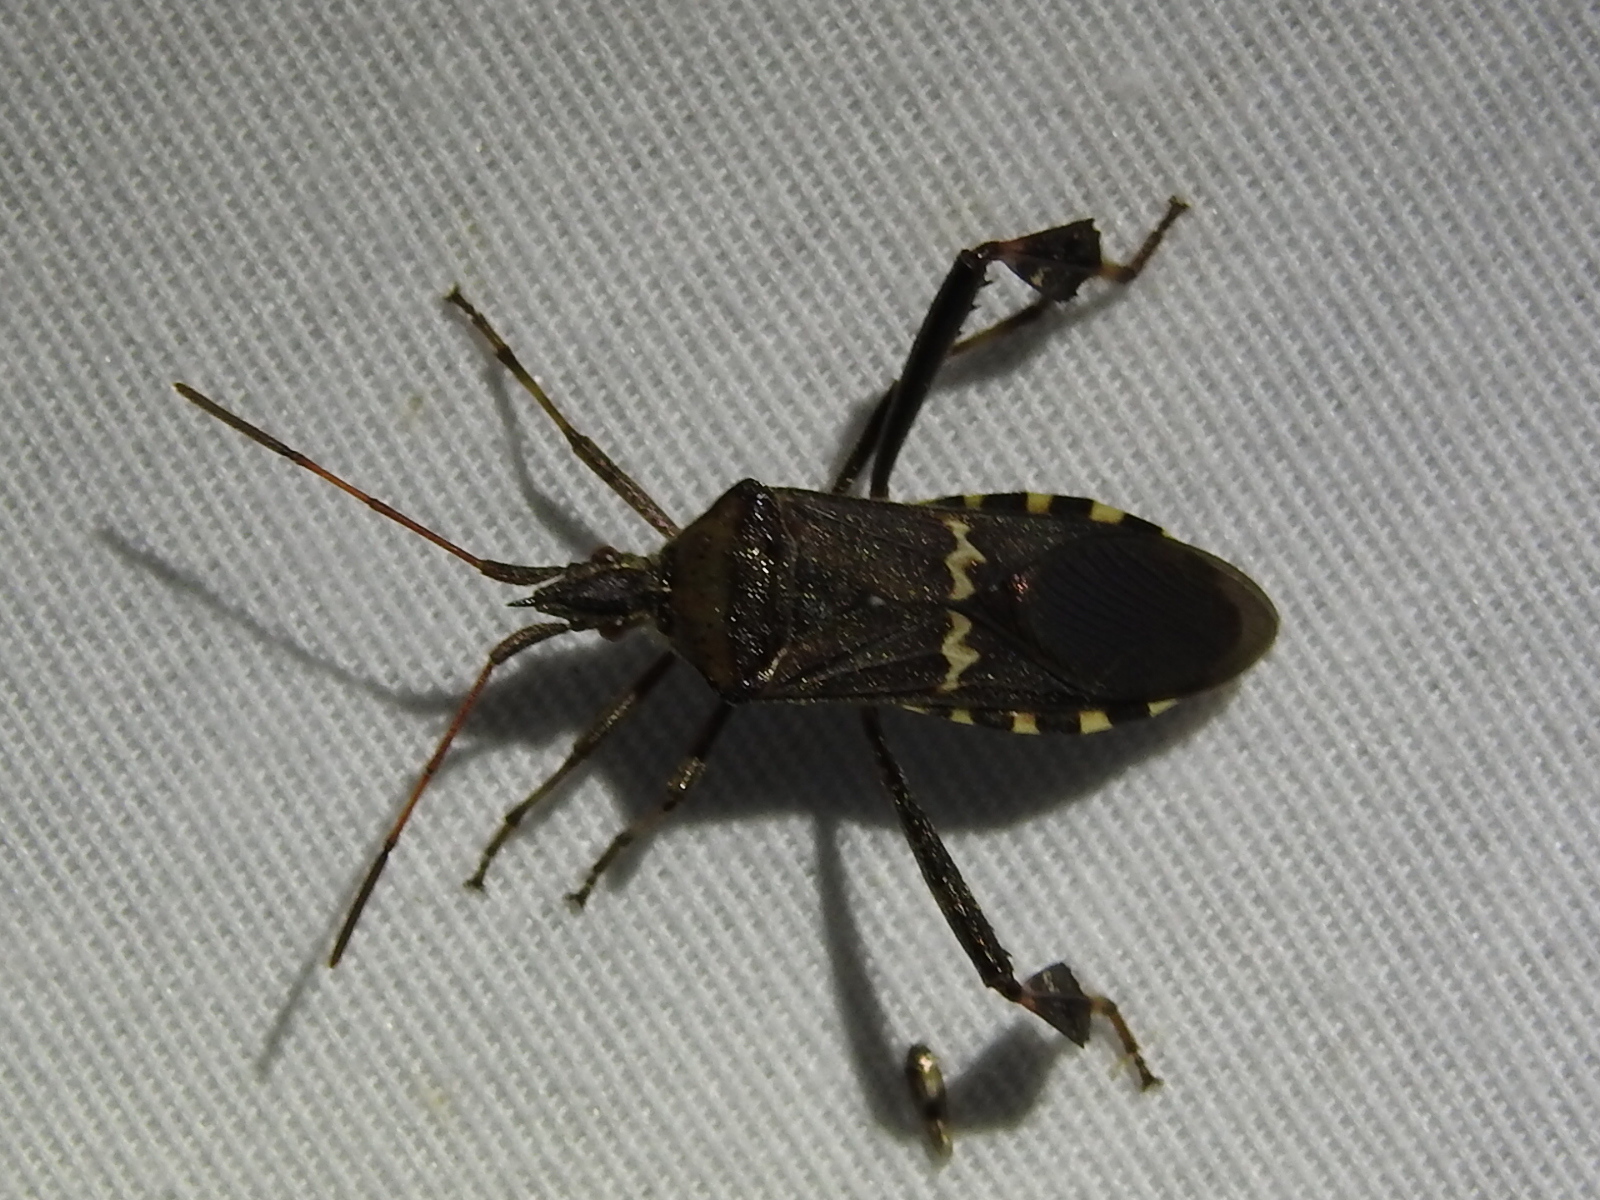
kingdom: Animalia
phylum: Arthropoda
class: Insecta
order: Hemiptera
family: Coreidae
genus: Leptoglossus
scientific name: Leptoglossus clypealis
